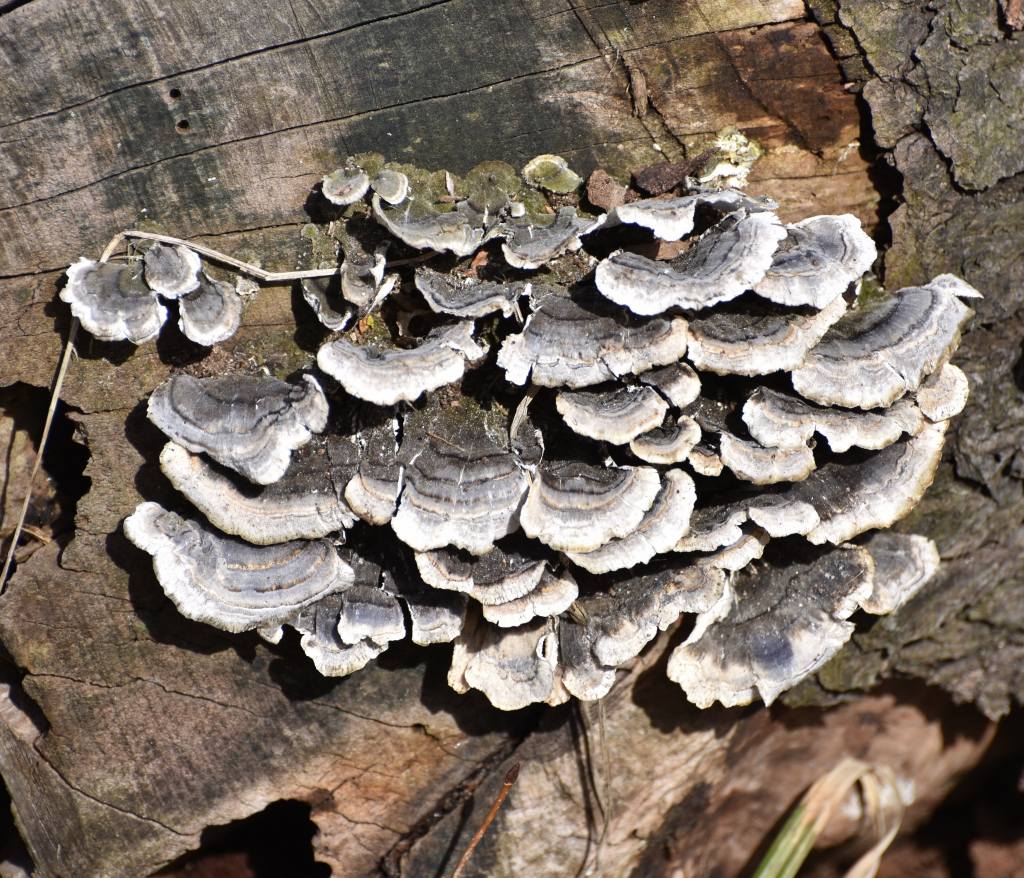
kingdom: Fungi
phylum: Basidiomycota
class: Agaricomycetes
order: Polyporales
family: Polyporaceae
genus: Trametes
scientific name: Trametes versicolor
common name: Turkeytail
